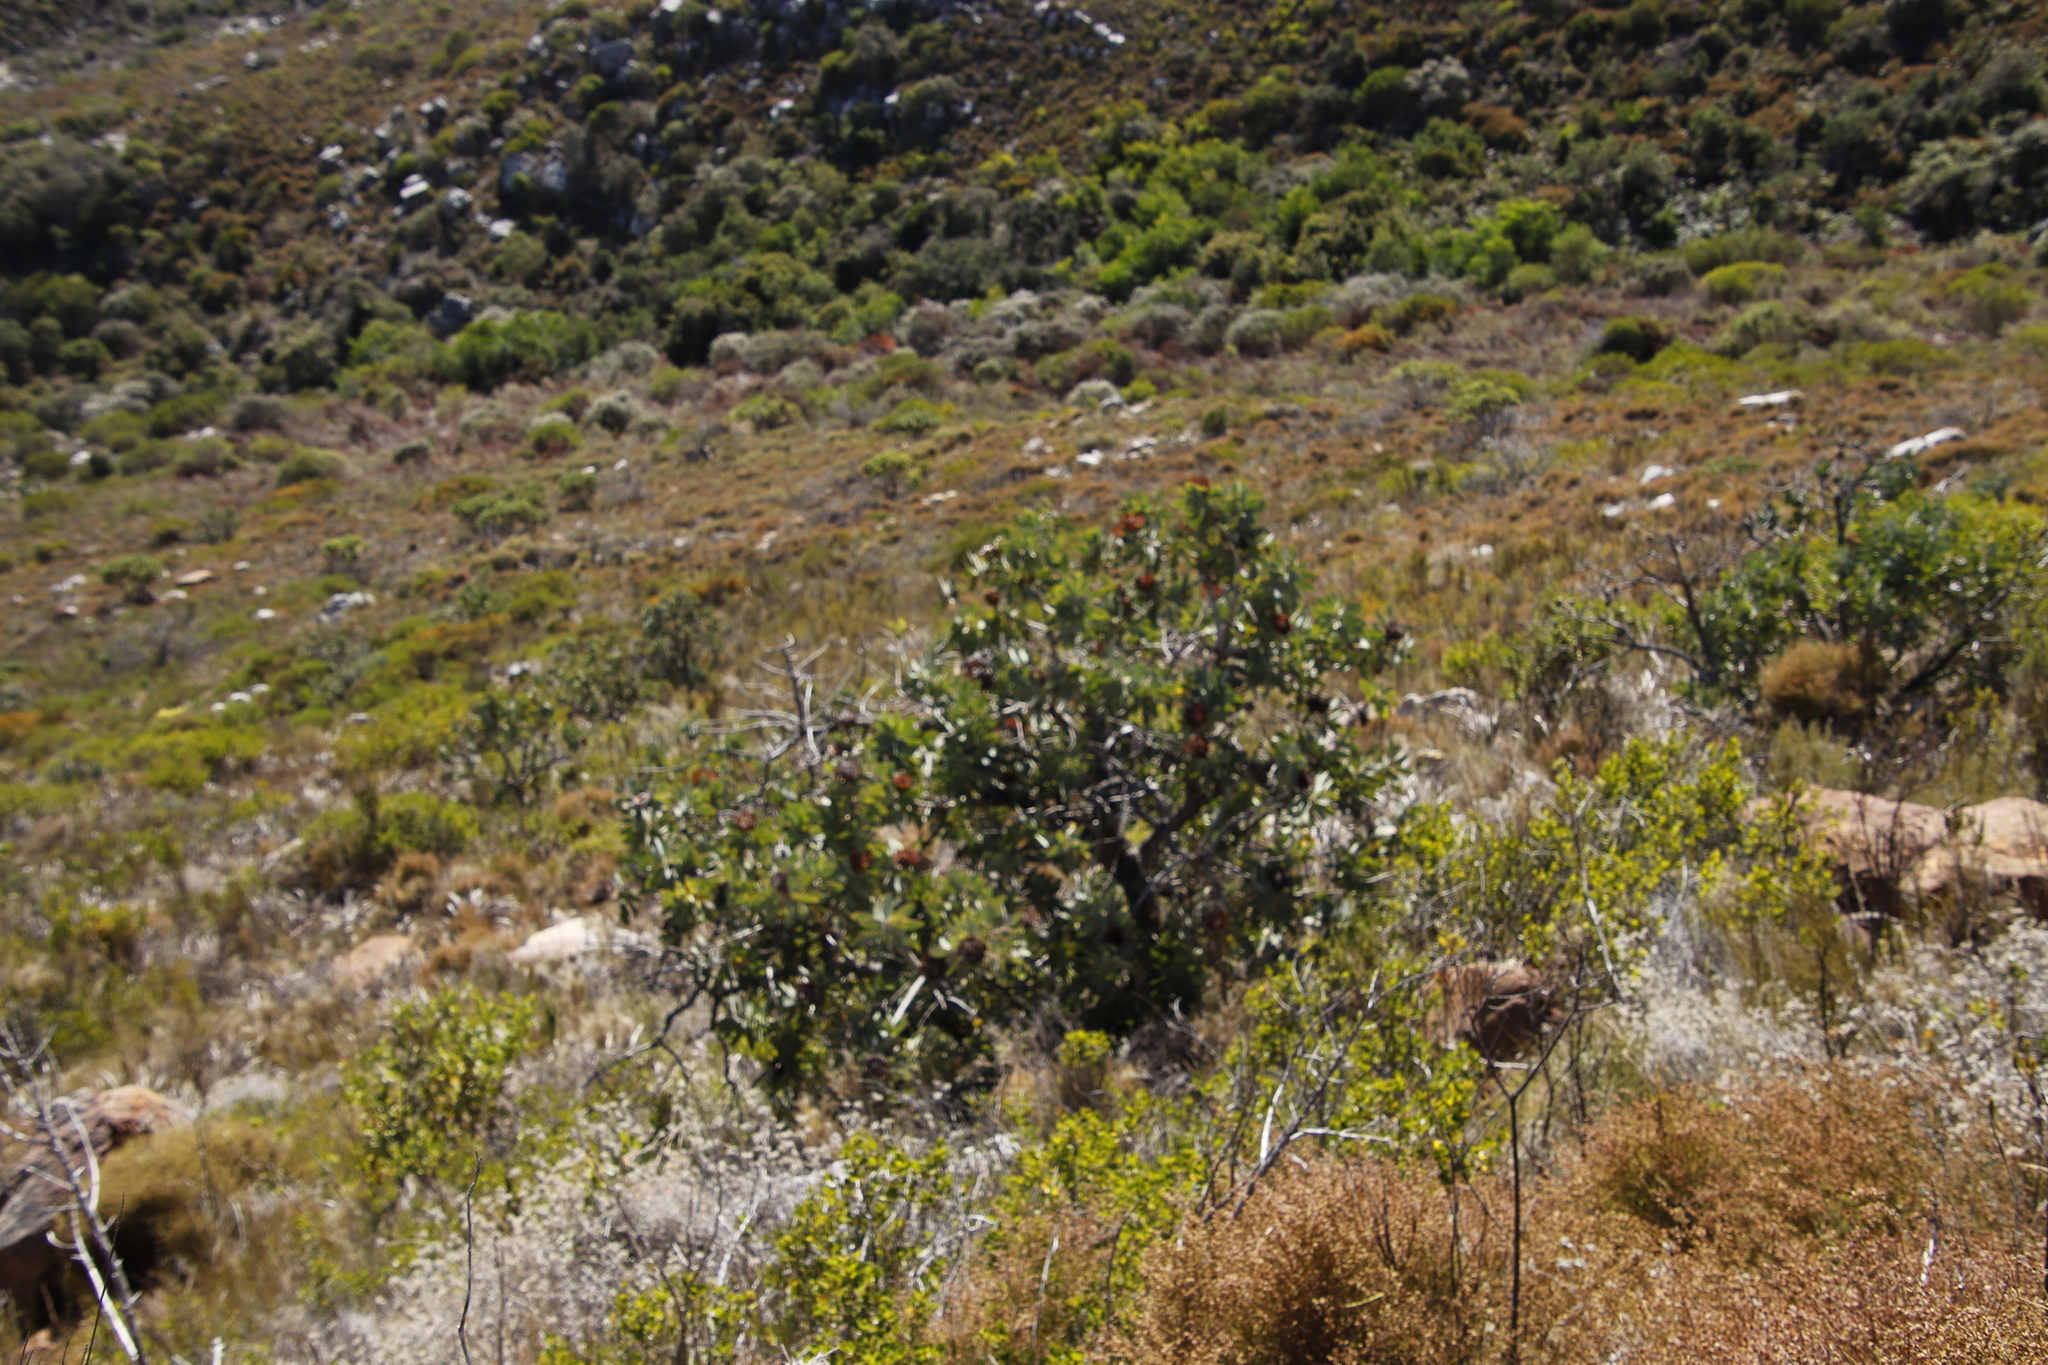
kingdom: Plantae
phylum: Tracheophyta
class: Magnoliopsida
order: Proteales
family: Proteaceae
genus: Protea
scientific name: Protea nitida
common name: Tree protea
